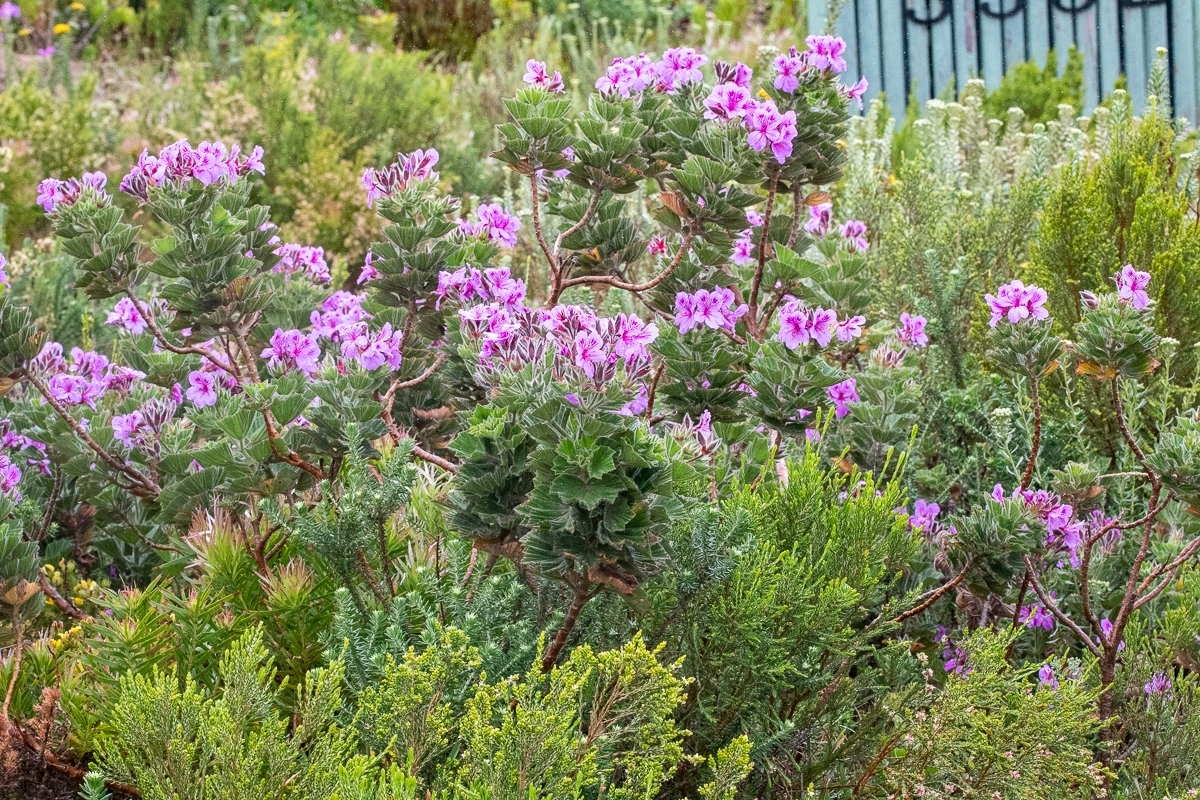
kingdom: Plantae
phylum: Tracheophyta
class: Magnoliopsida
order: Geraniales
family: Geraniaceae
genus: Pelargonium
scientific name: Pelargonium cucullatum
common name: Tree pelargonium
